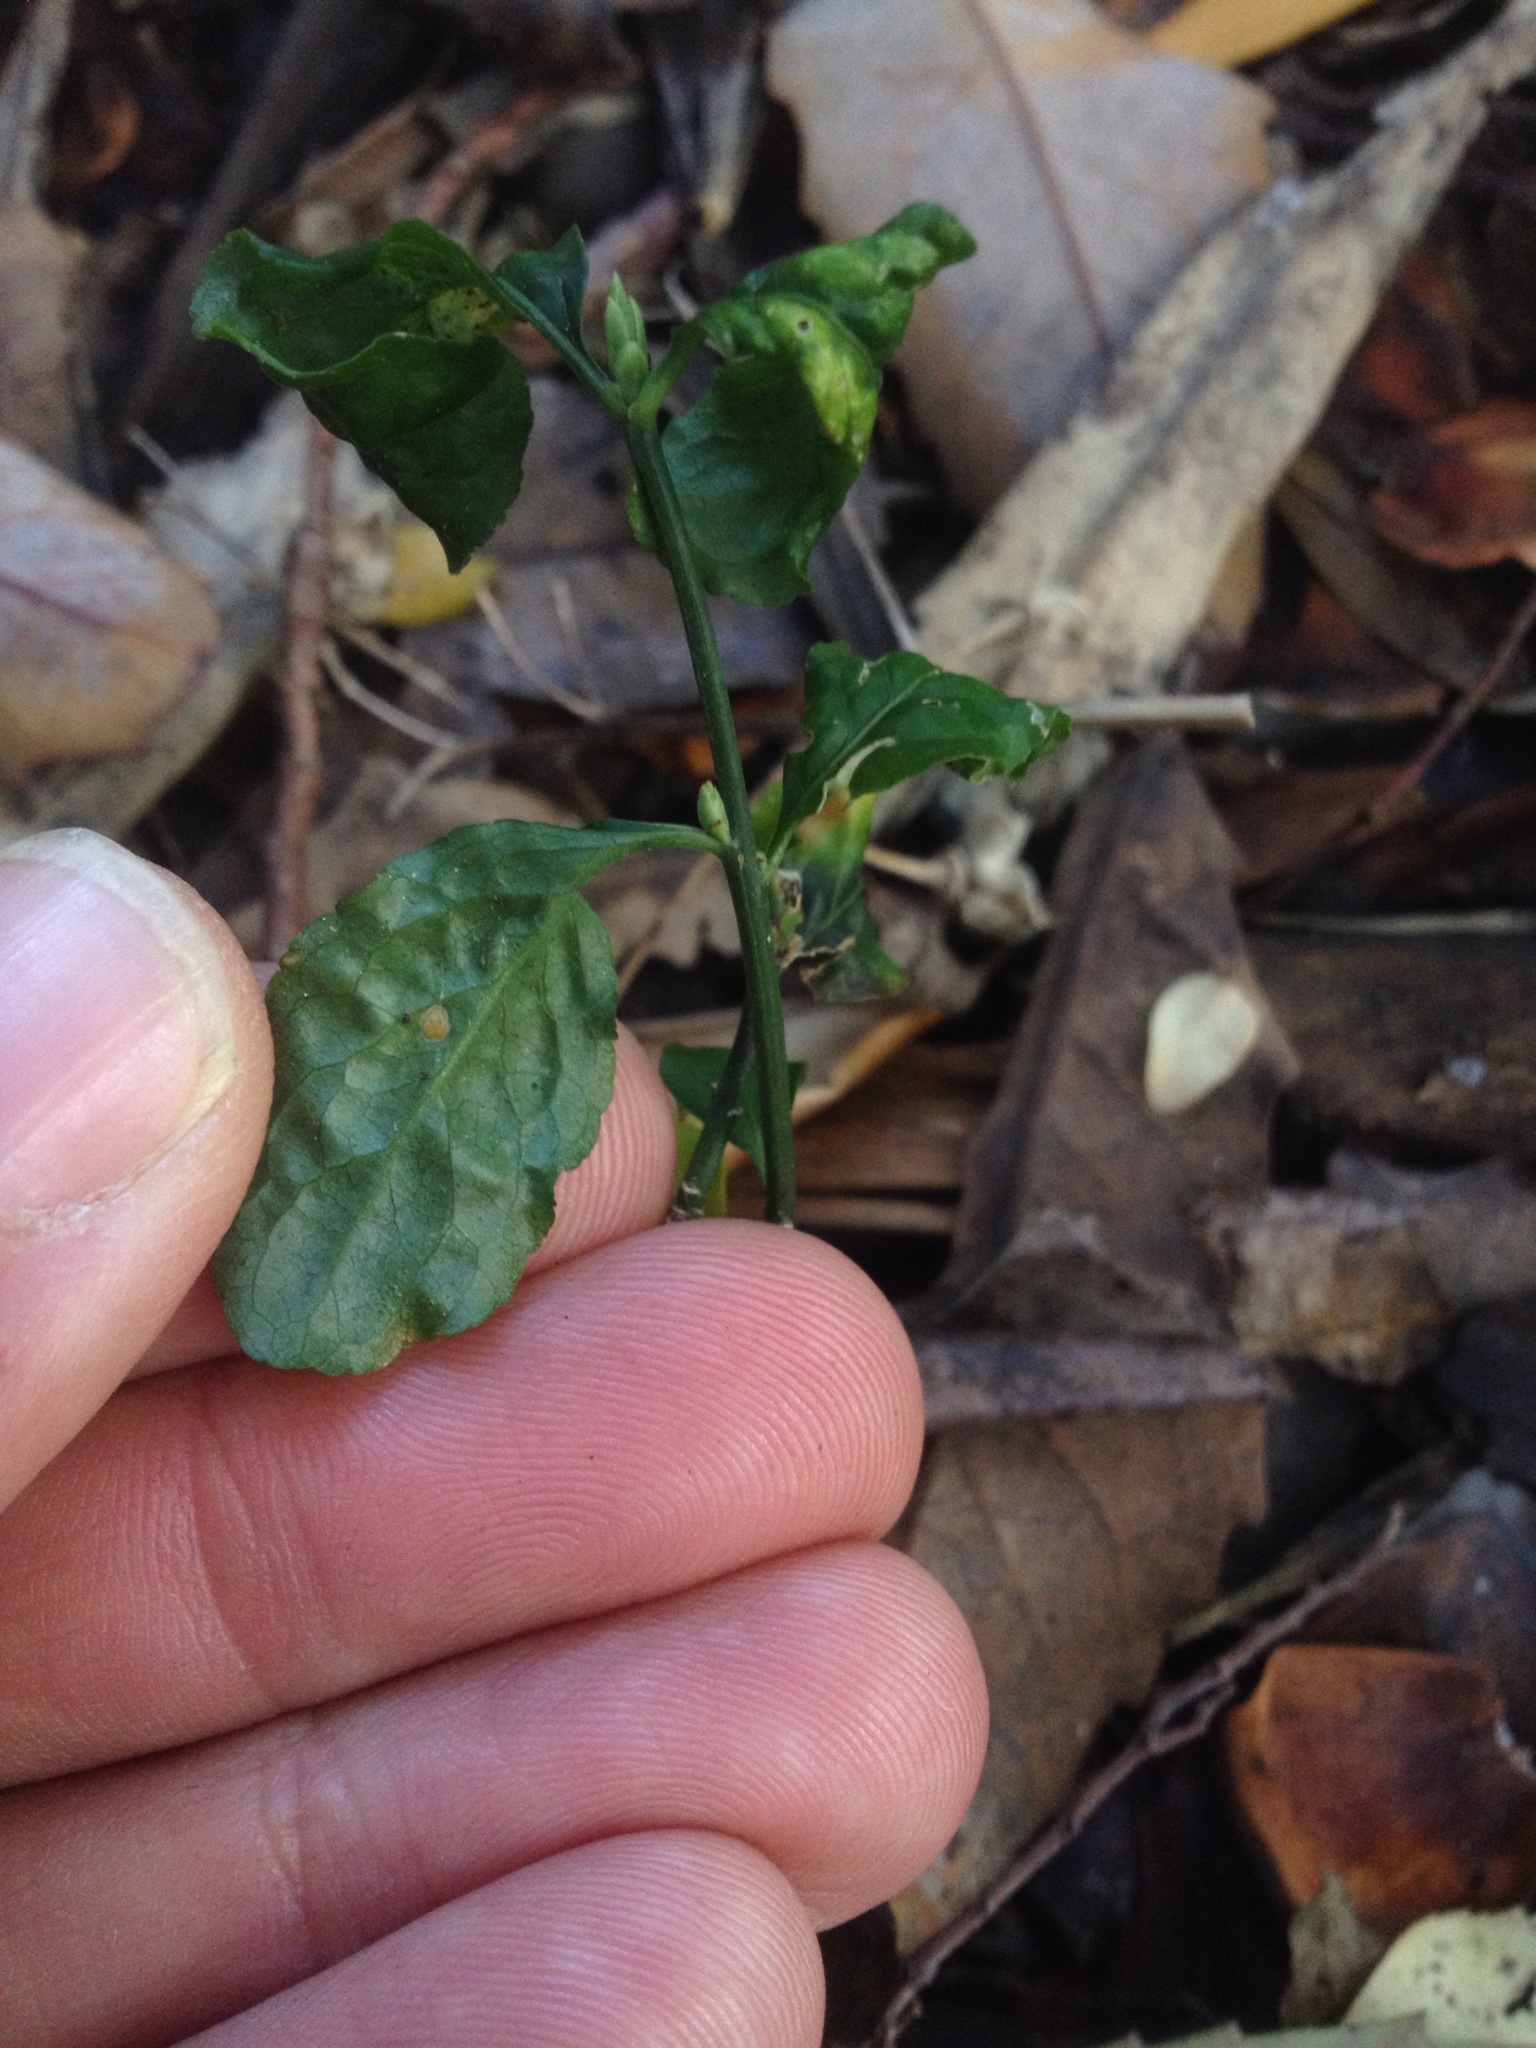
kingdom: Plantae
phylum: Tracheophyta
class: Magnoliopsida
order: Celastrales
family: Celastraceae
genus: Euonymus
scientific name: Euonymus europaeus
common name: Spindle
